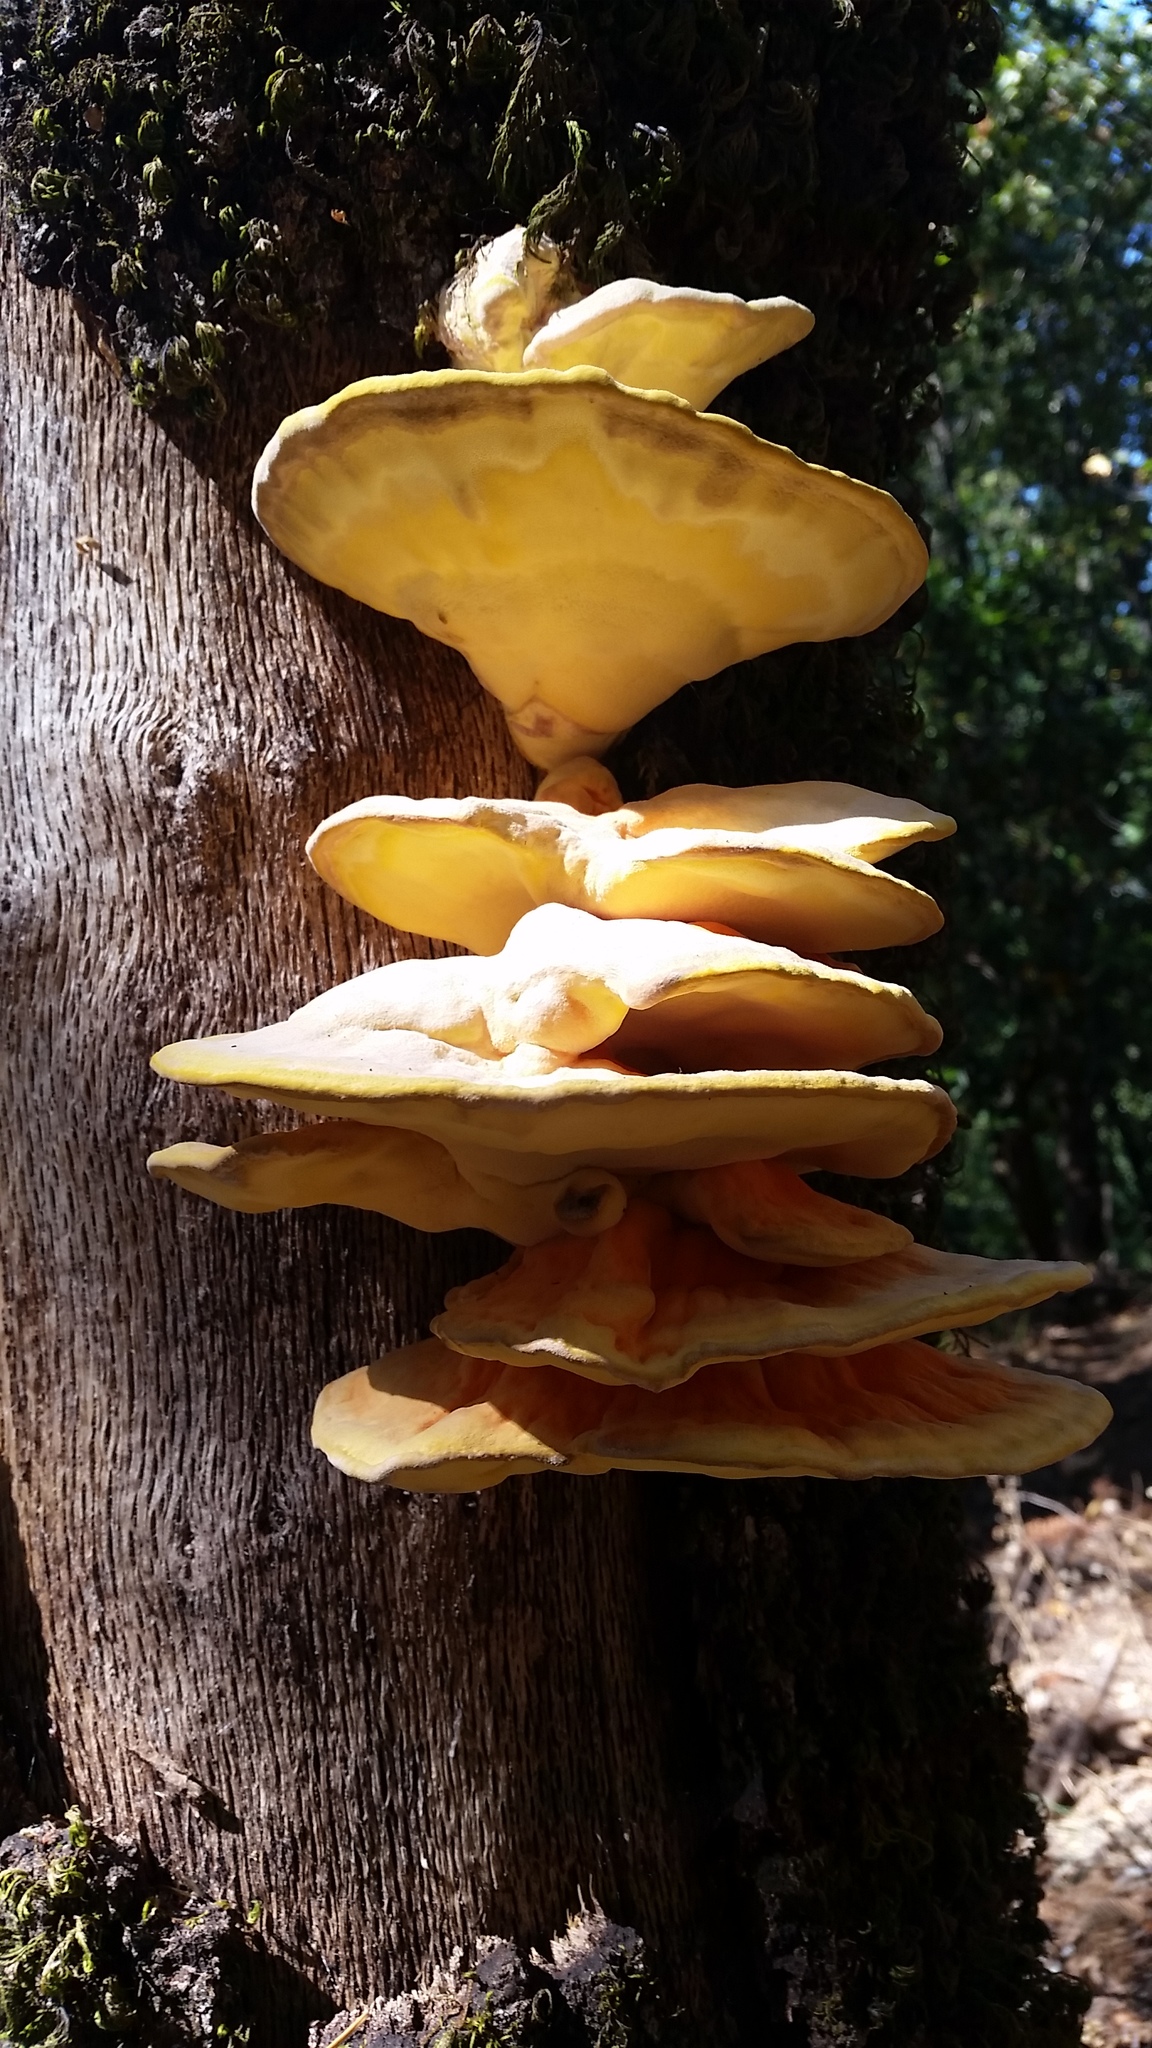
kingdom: Fungi
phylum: Basidiomycota
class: Agaricomycetes
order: Polyporales
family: Laetiporaceae
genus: Laetiporus
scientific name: Laetiporus gilbertsonii
